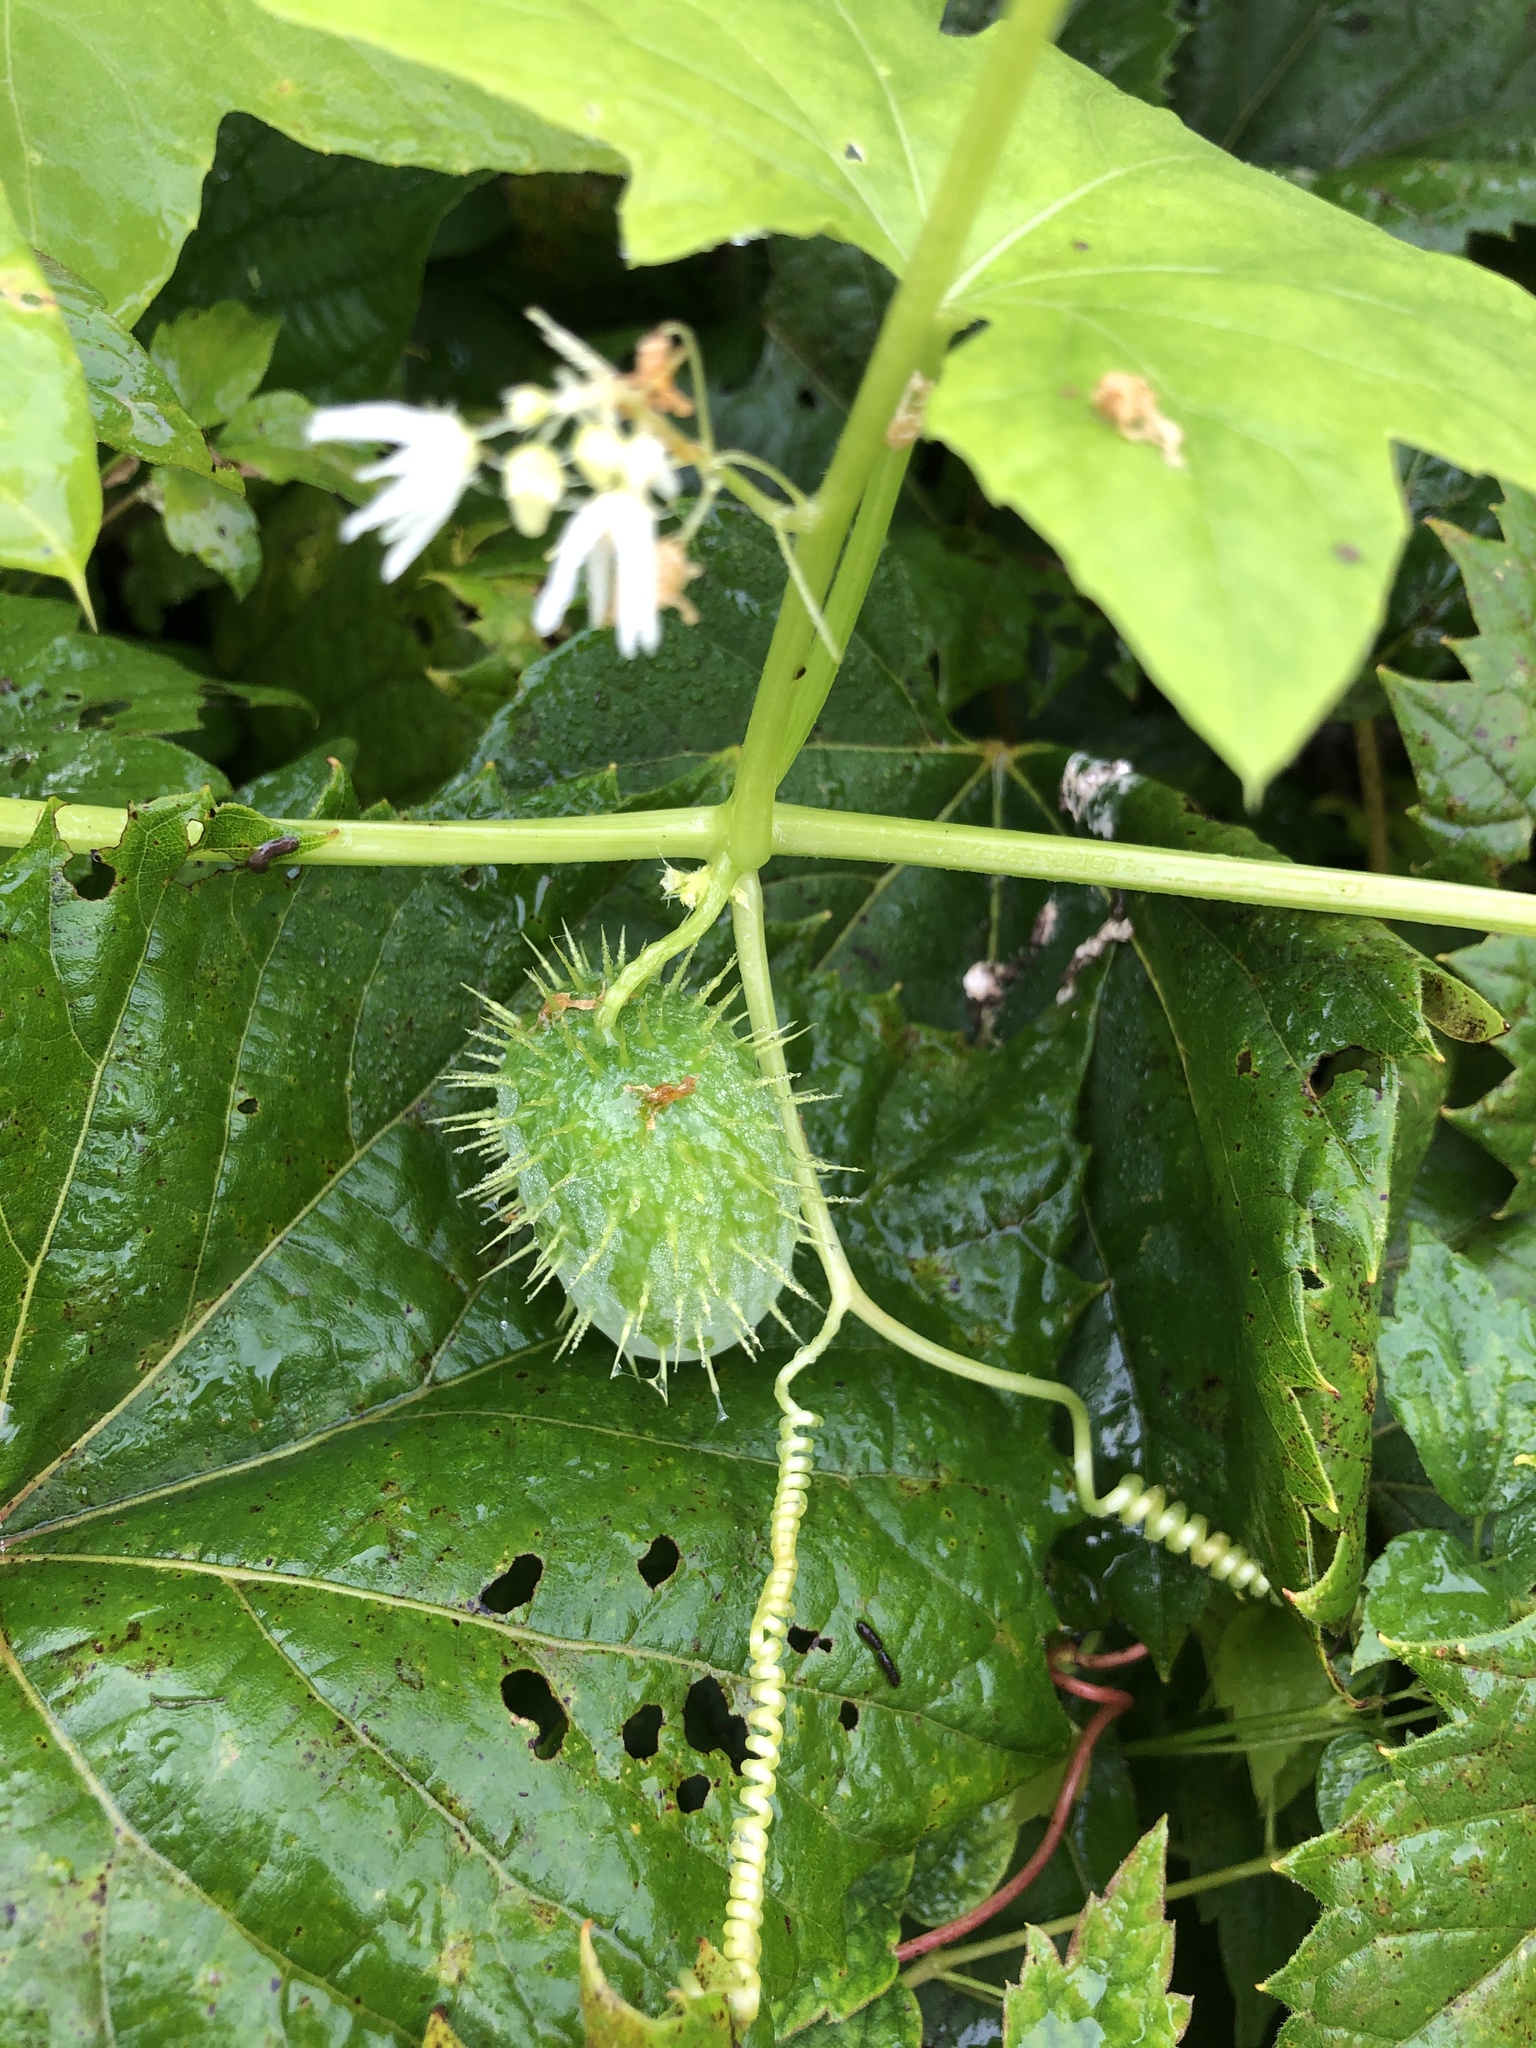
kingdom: Plantae
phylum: Tracheophyta
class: Magnoliopsida
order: Cucurbitales
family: Cucurbitaceae
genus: Echinocystis
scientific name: Echinocystis lobata
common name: Wild cucumber
